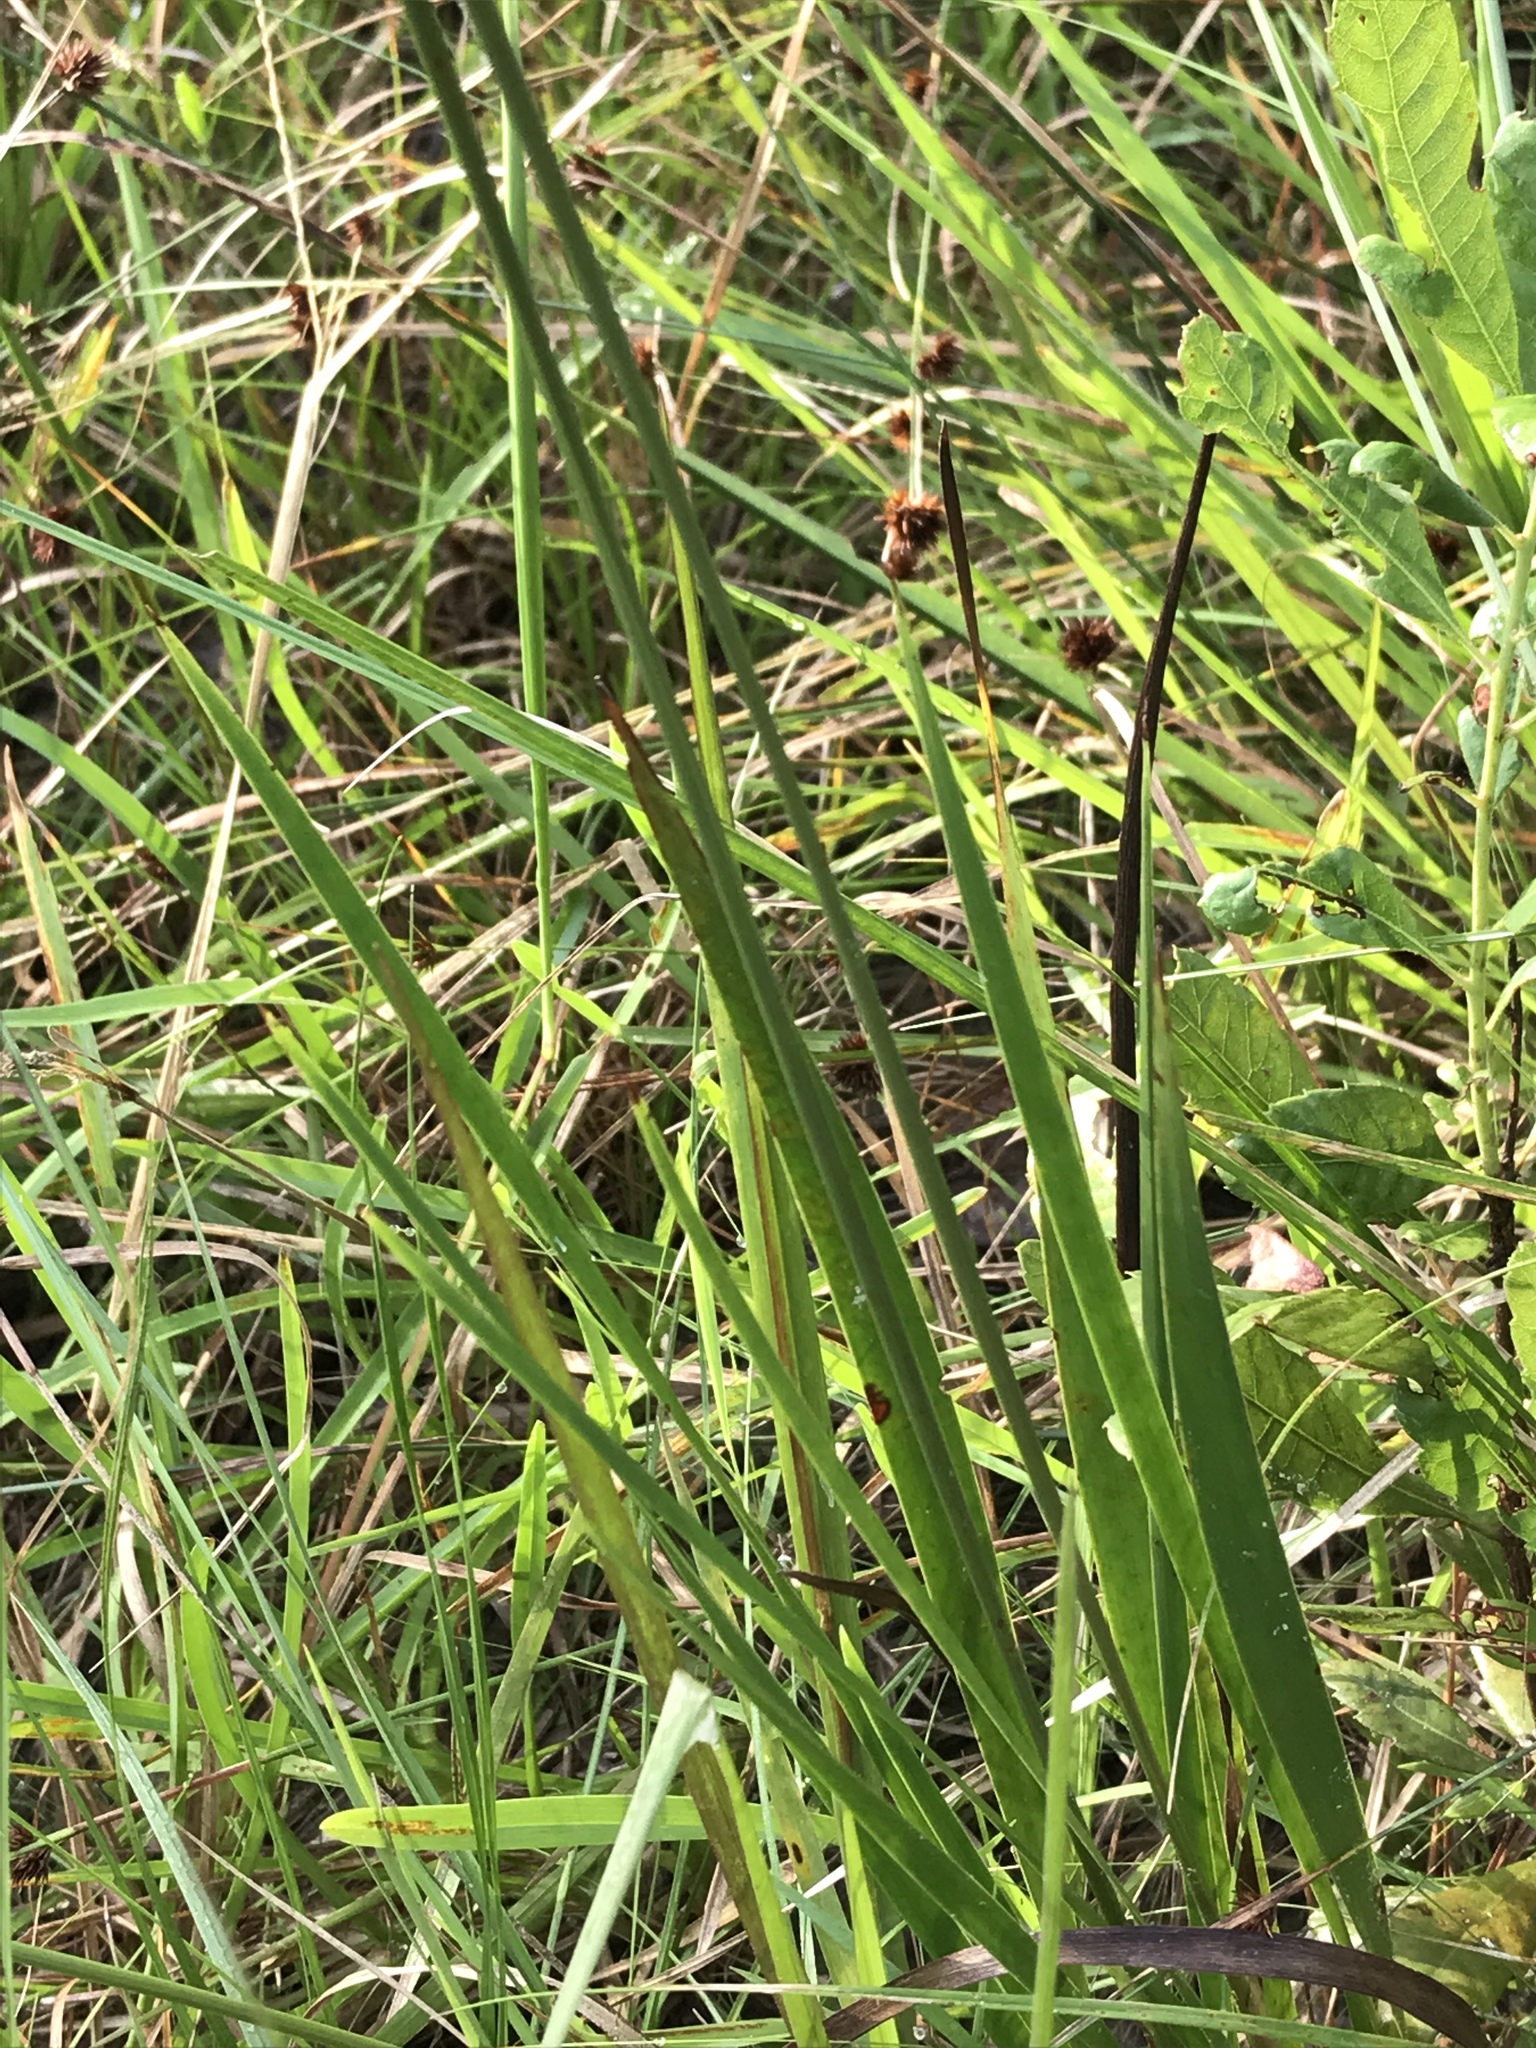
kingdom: Plantae
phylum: Tracheophyta
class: Liliopsida
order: Poales
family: Xyridaceae
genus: Xyris
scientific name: Xyris ambigua
